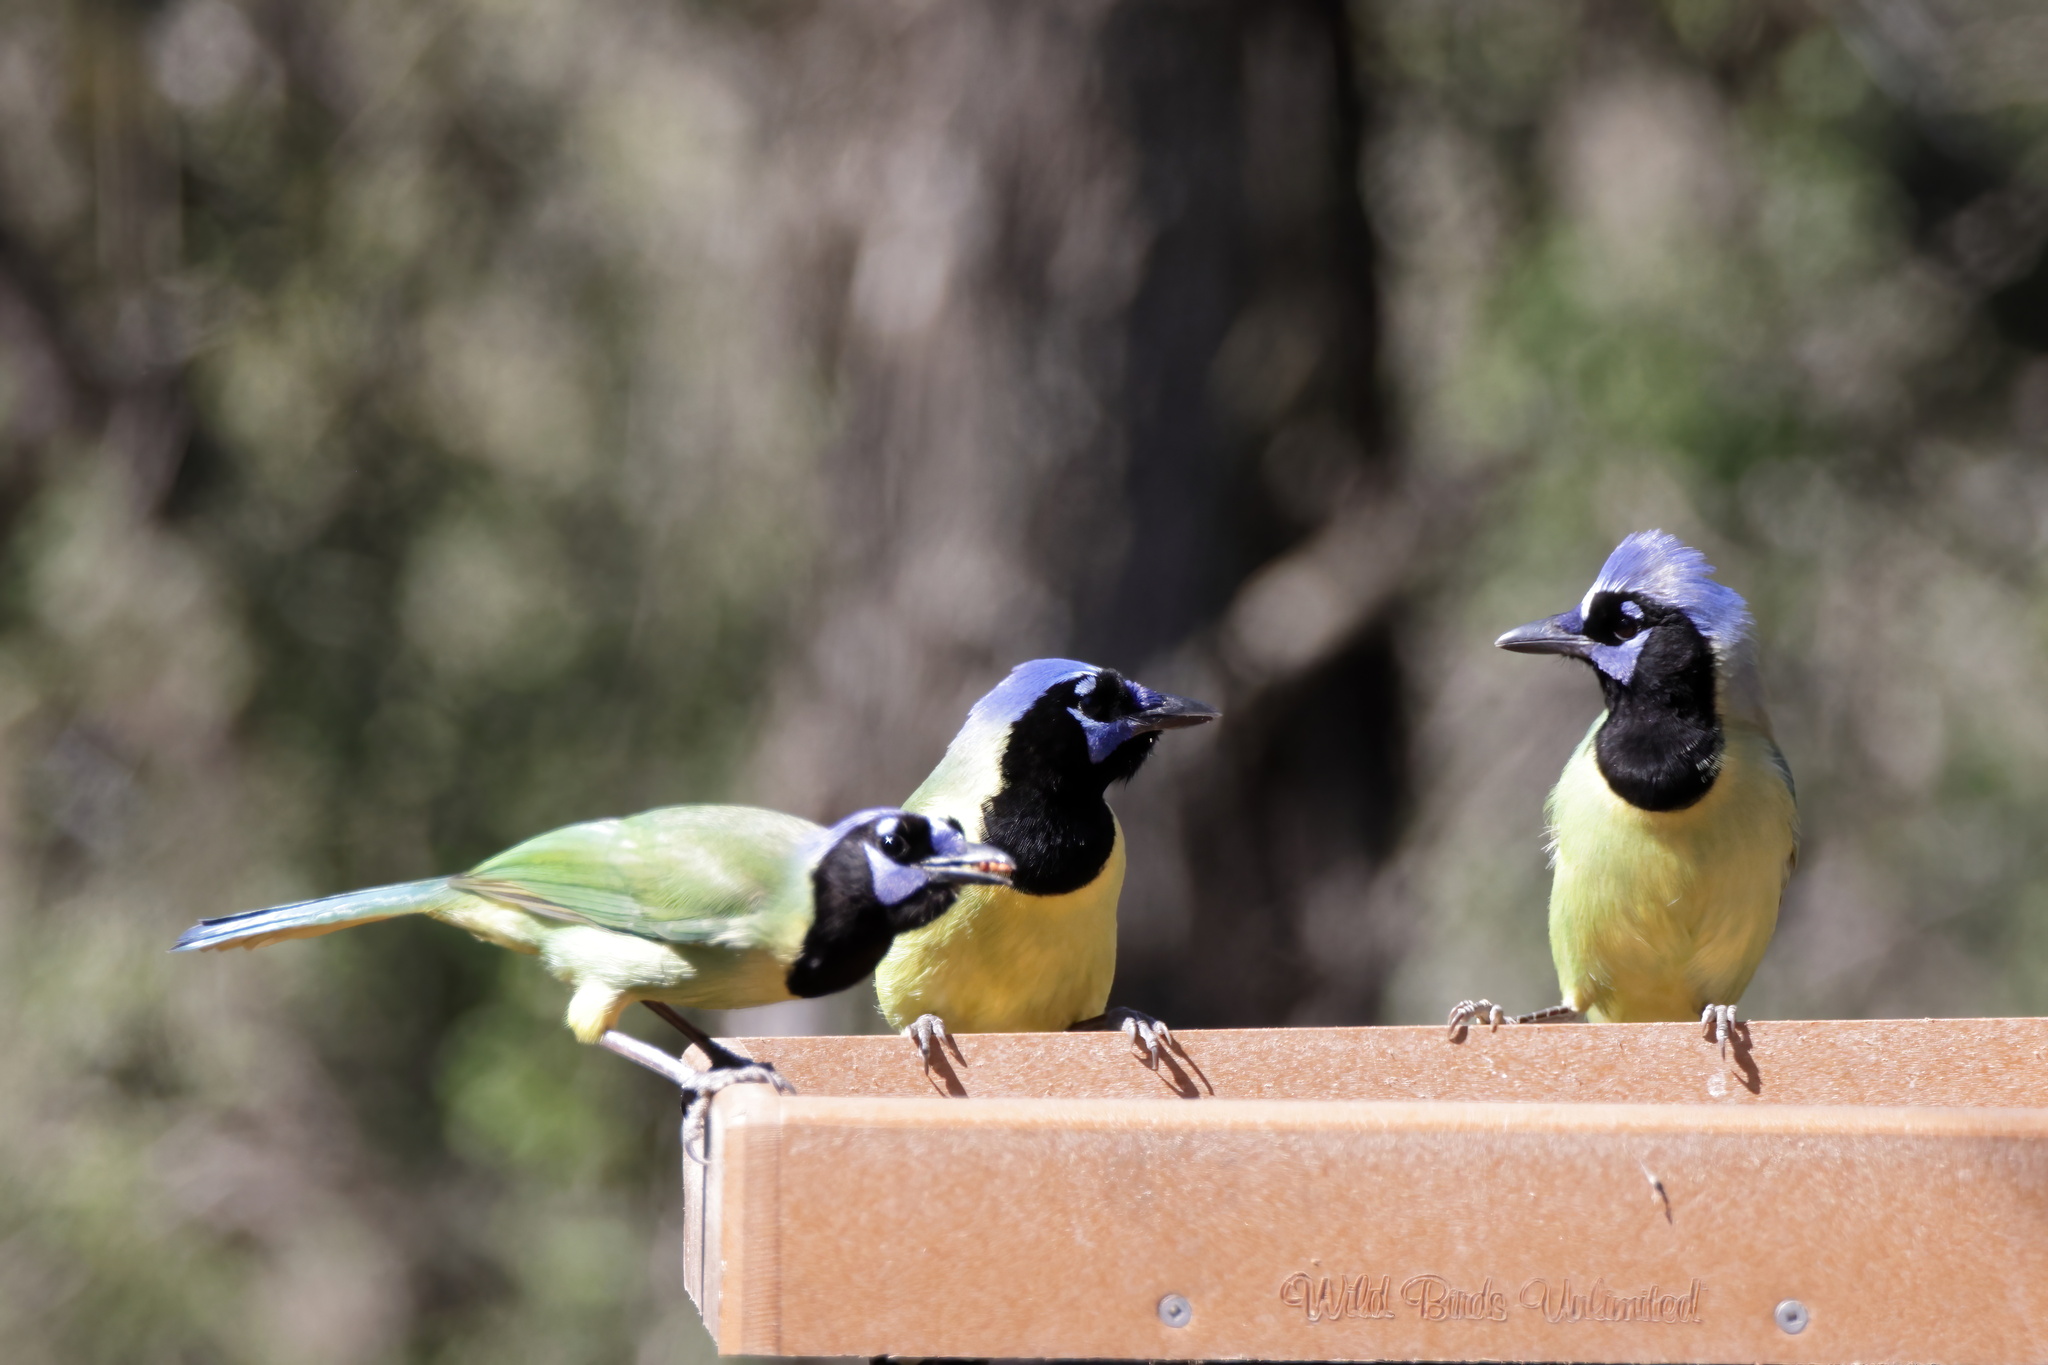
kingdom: Animalia
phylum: Chordata
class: Aves
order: Passeriformes
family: Corvidae
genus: Cyanocorax
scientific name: Cyanocorax yncas
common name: Green jay
